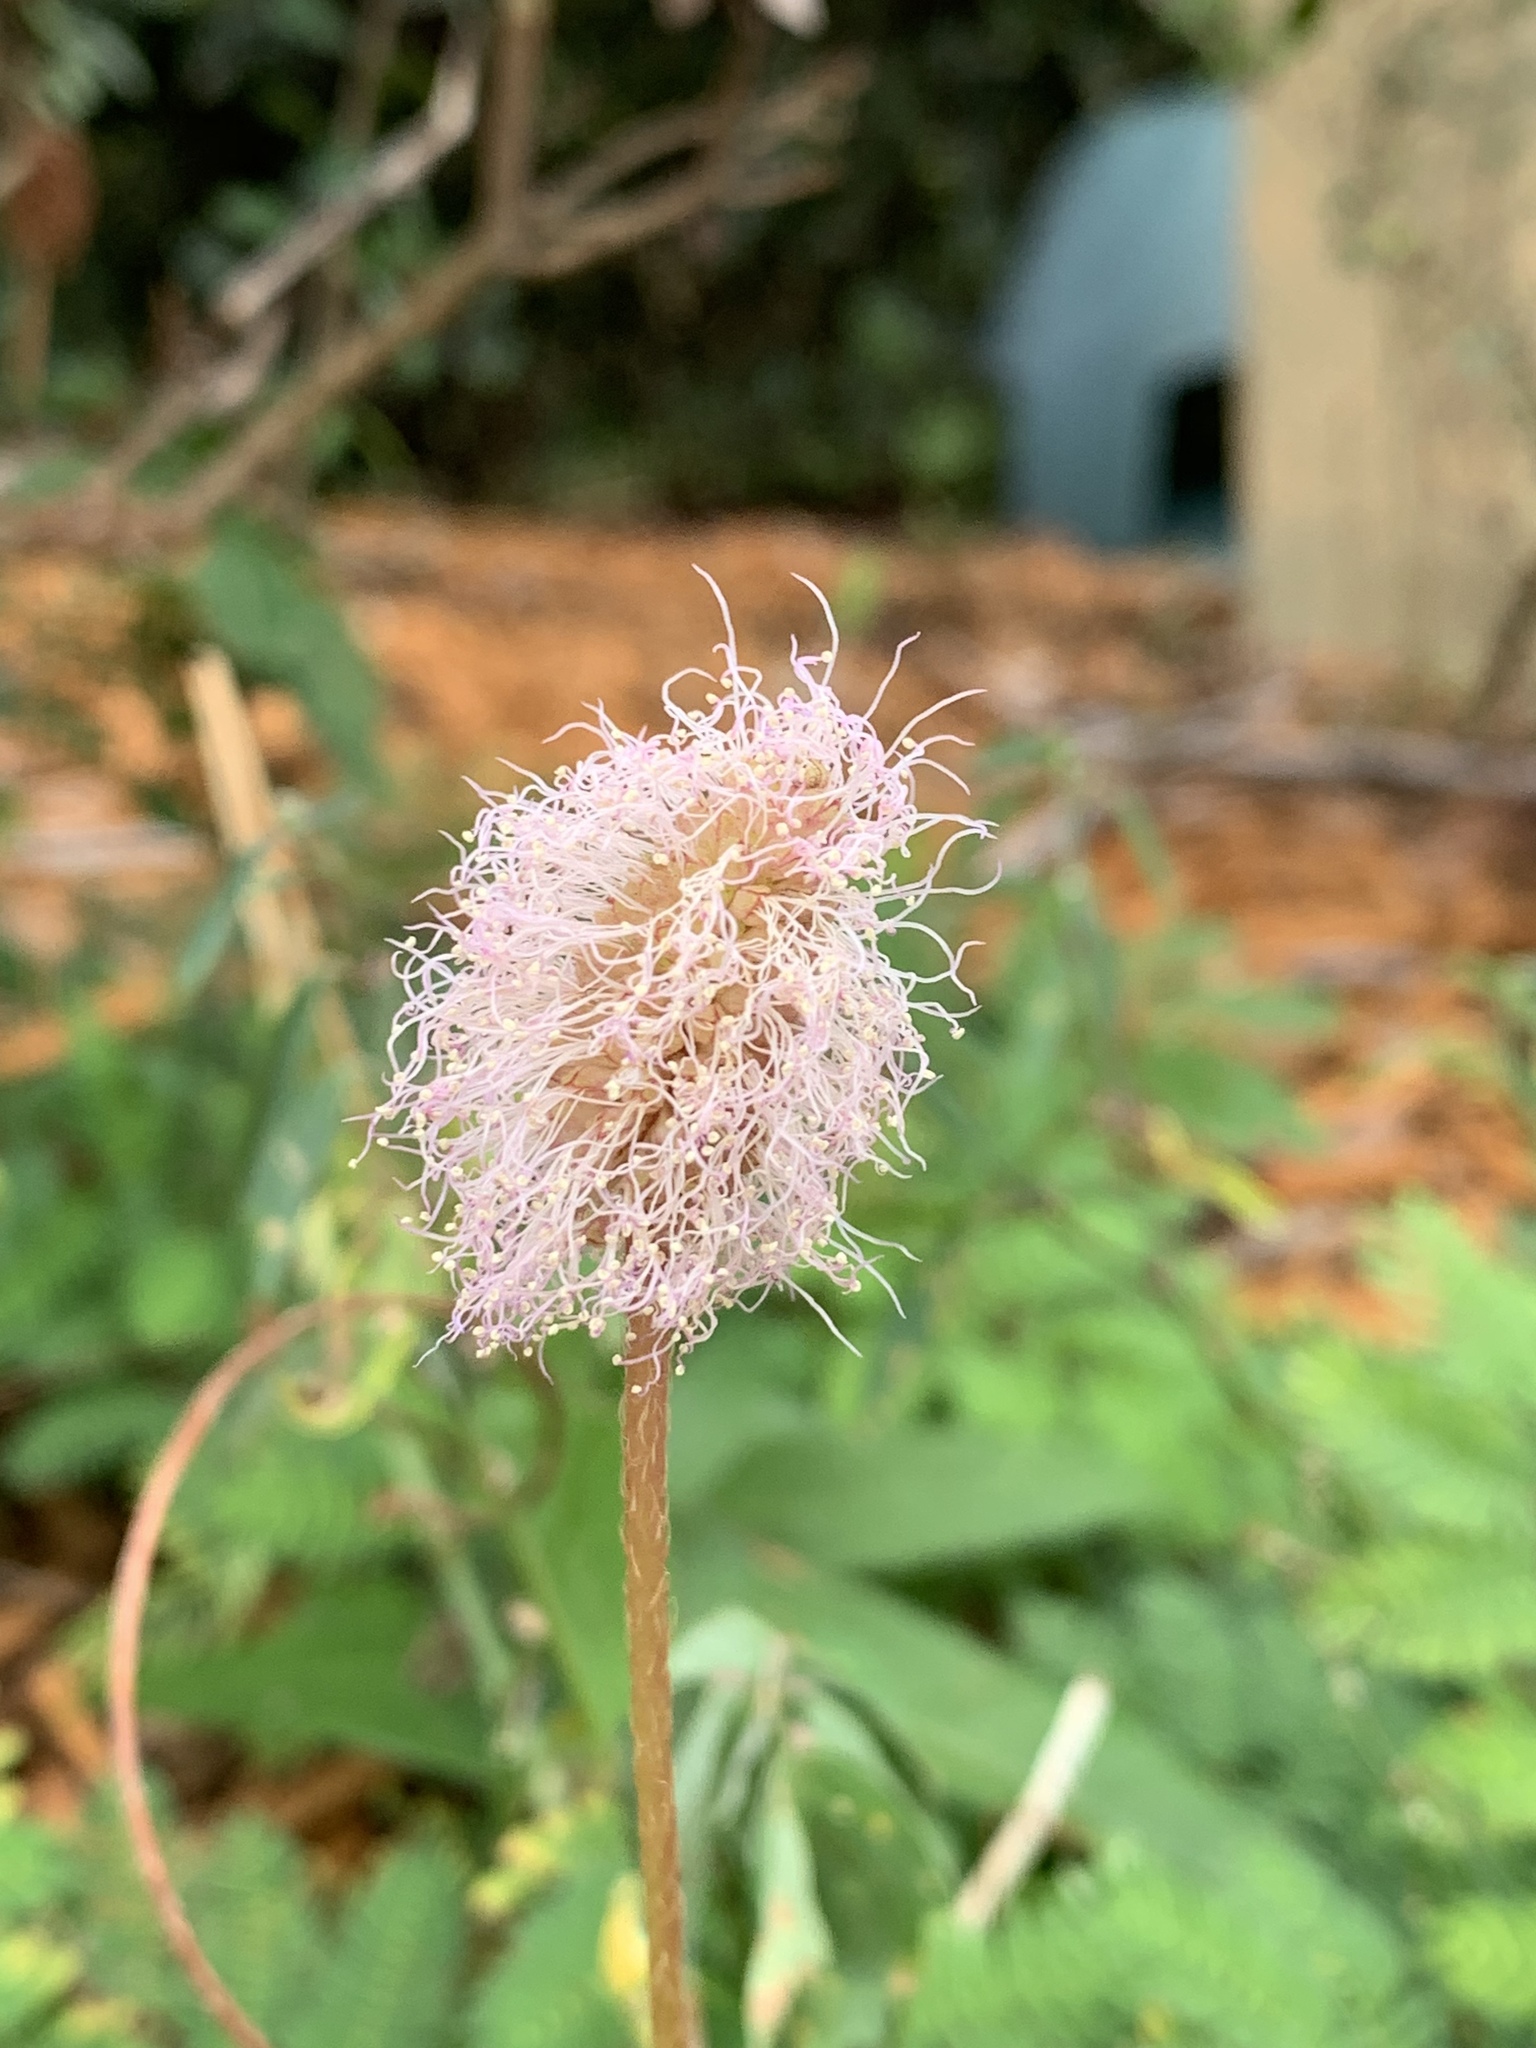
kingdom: Plantae
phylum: Tracheophyta
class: Magnoliopsida
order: Fabales
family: Fabaceae
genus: Mimosa
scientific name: Mimosa strigillosa
